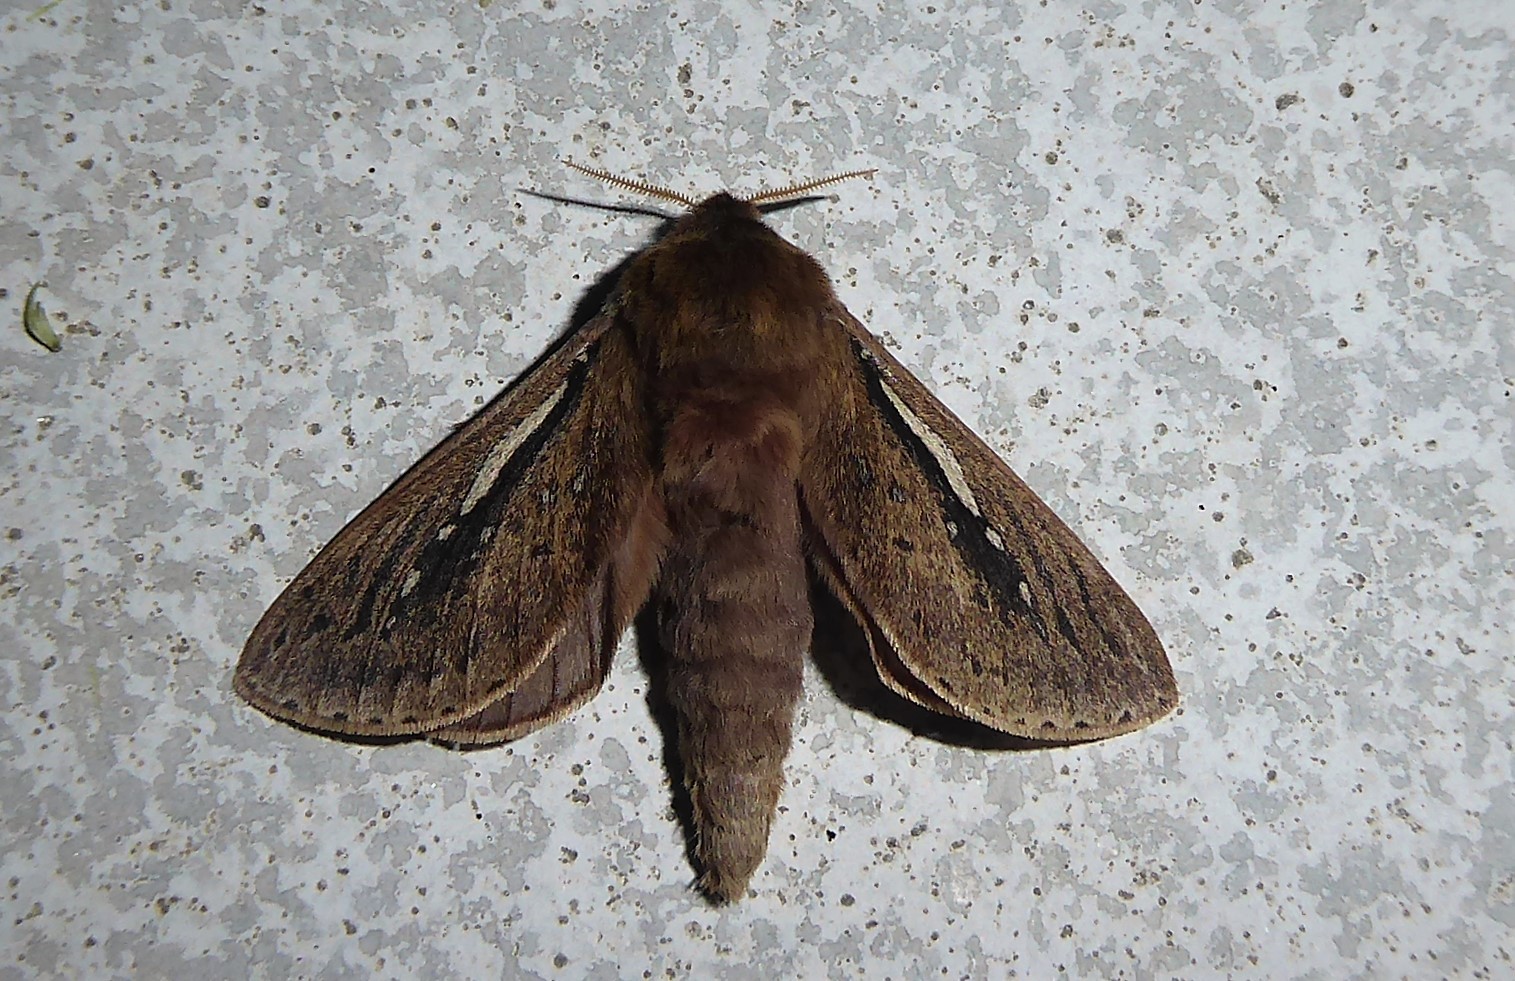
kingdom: Animalia
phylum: Arthropoda
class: Insecta
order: Lepidoptera
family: Hepialidae
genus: Wiseana
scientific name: Wiseana umbraculatus
